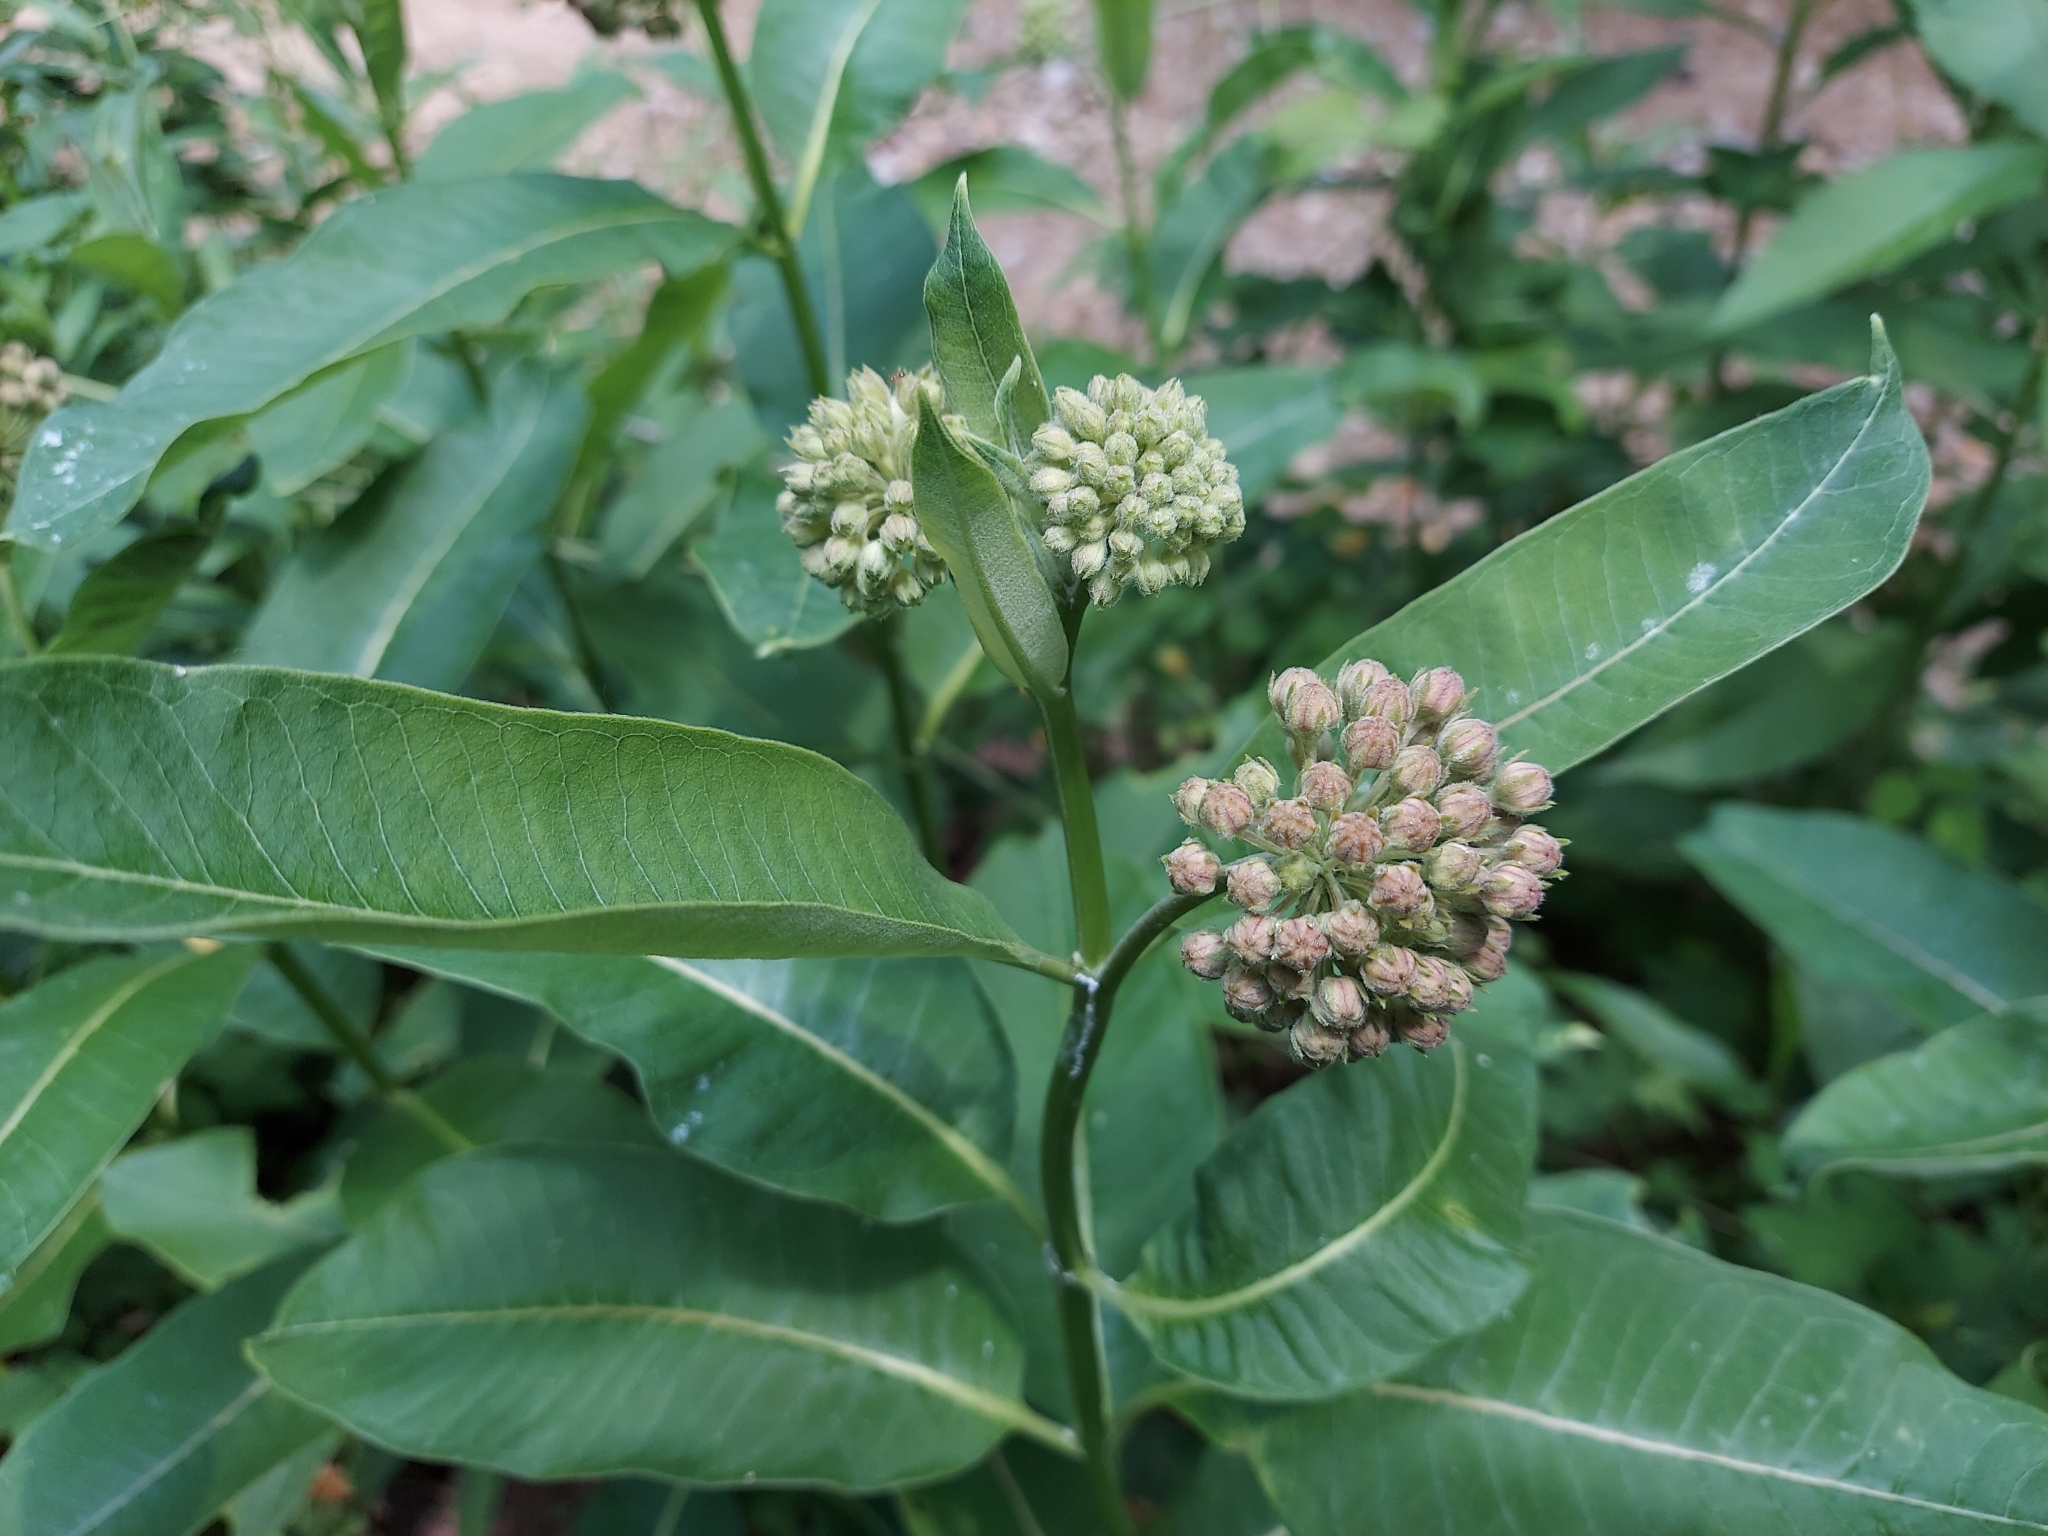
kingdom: Plantae
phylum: Tracheophyta
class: Magnoliopsida
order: Gentianales
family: Apocynaceae
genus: Asclepias
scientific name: Asclepias syriaca
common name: Common milkweed
